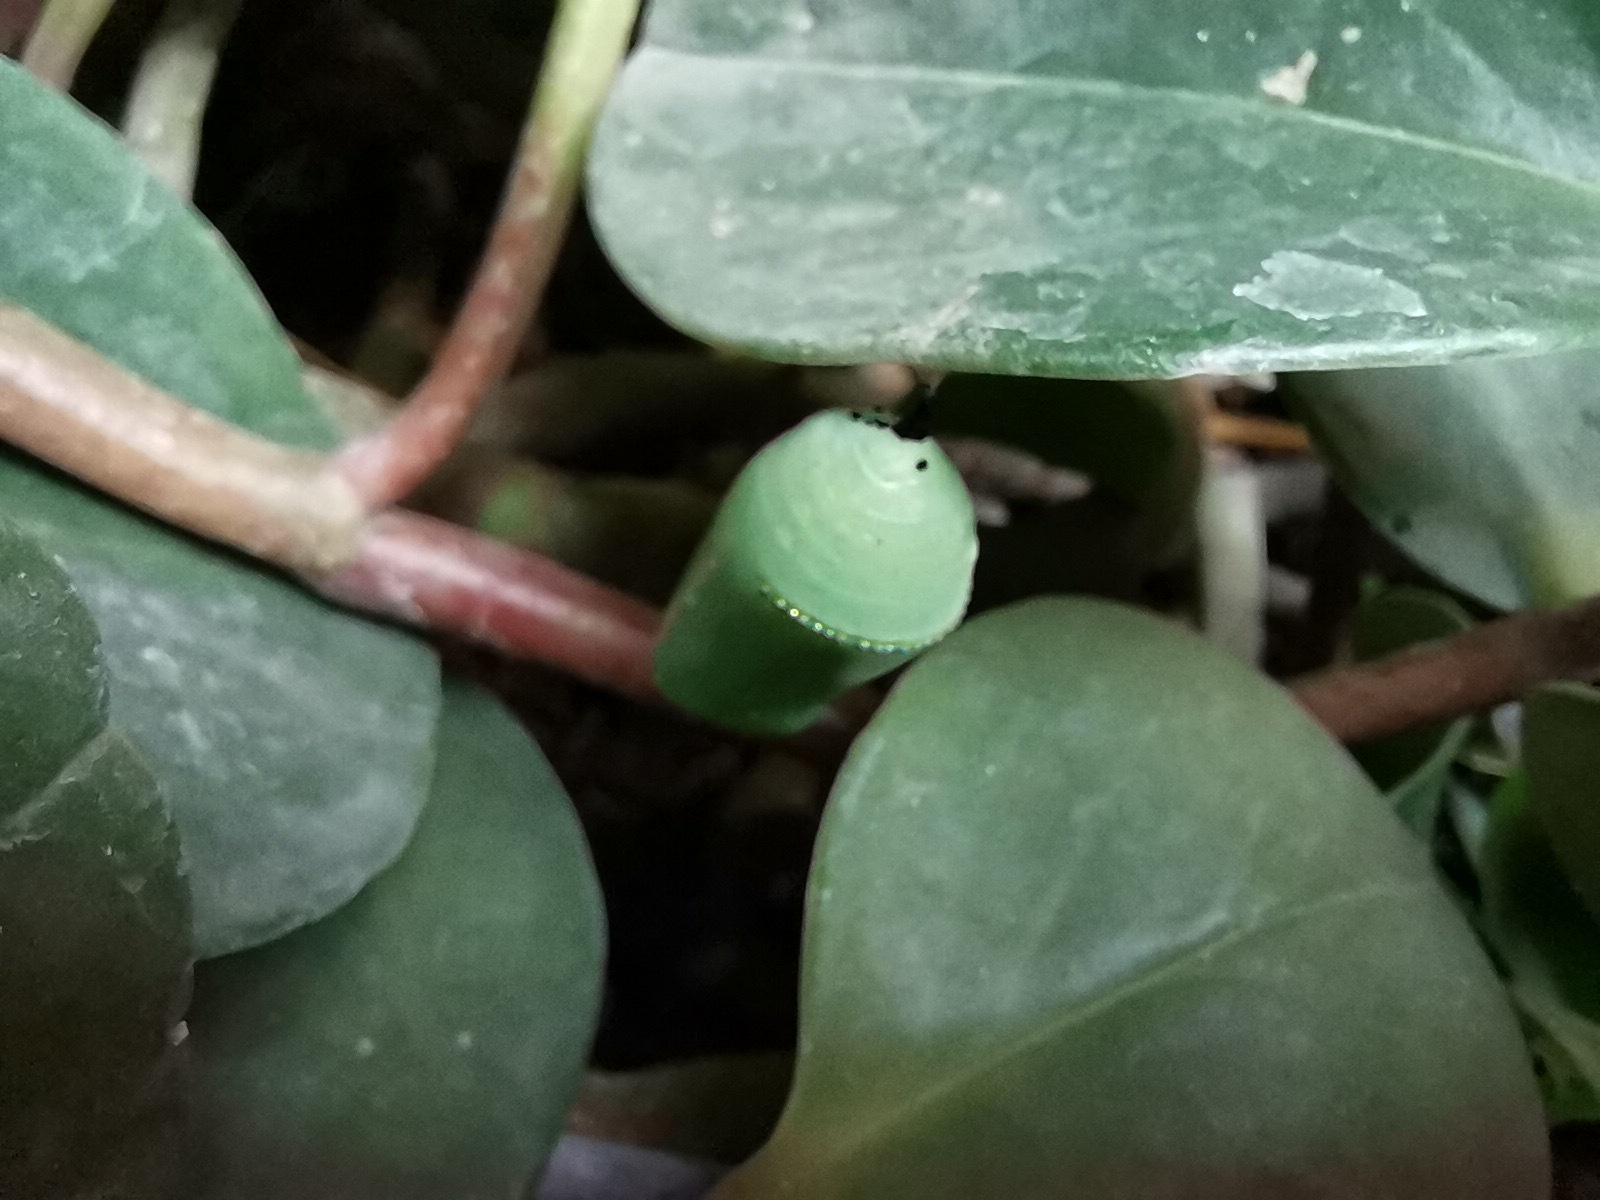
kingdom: Animalia
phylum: Arthropoda
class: Insecta
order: Lepidoptera
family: Nymphalidae
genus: Danaus
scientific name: Danaus plexippus
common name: Monarch
